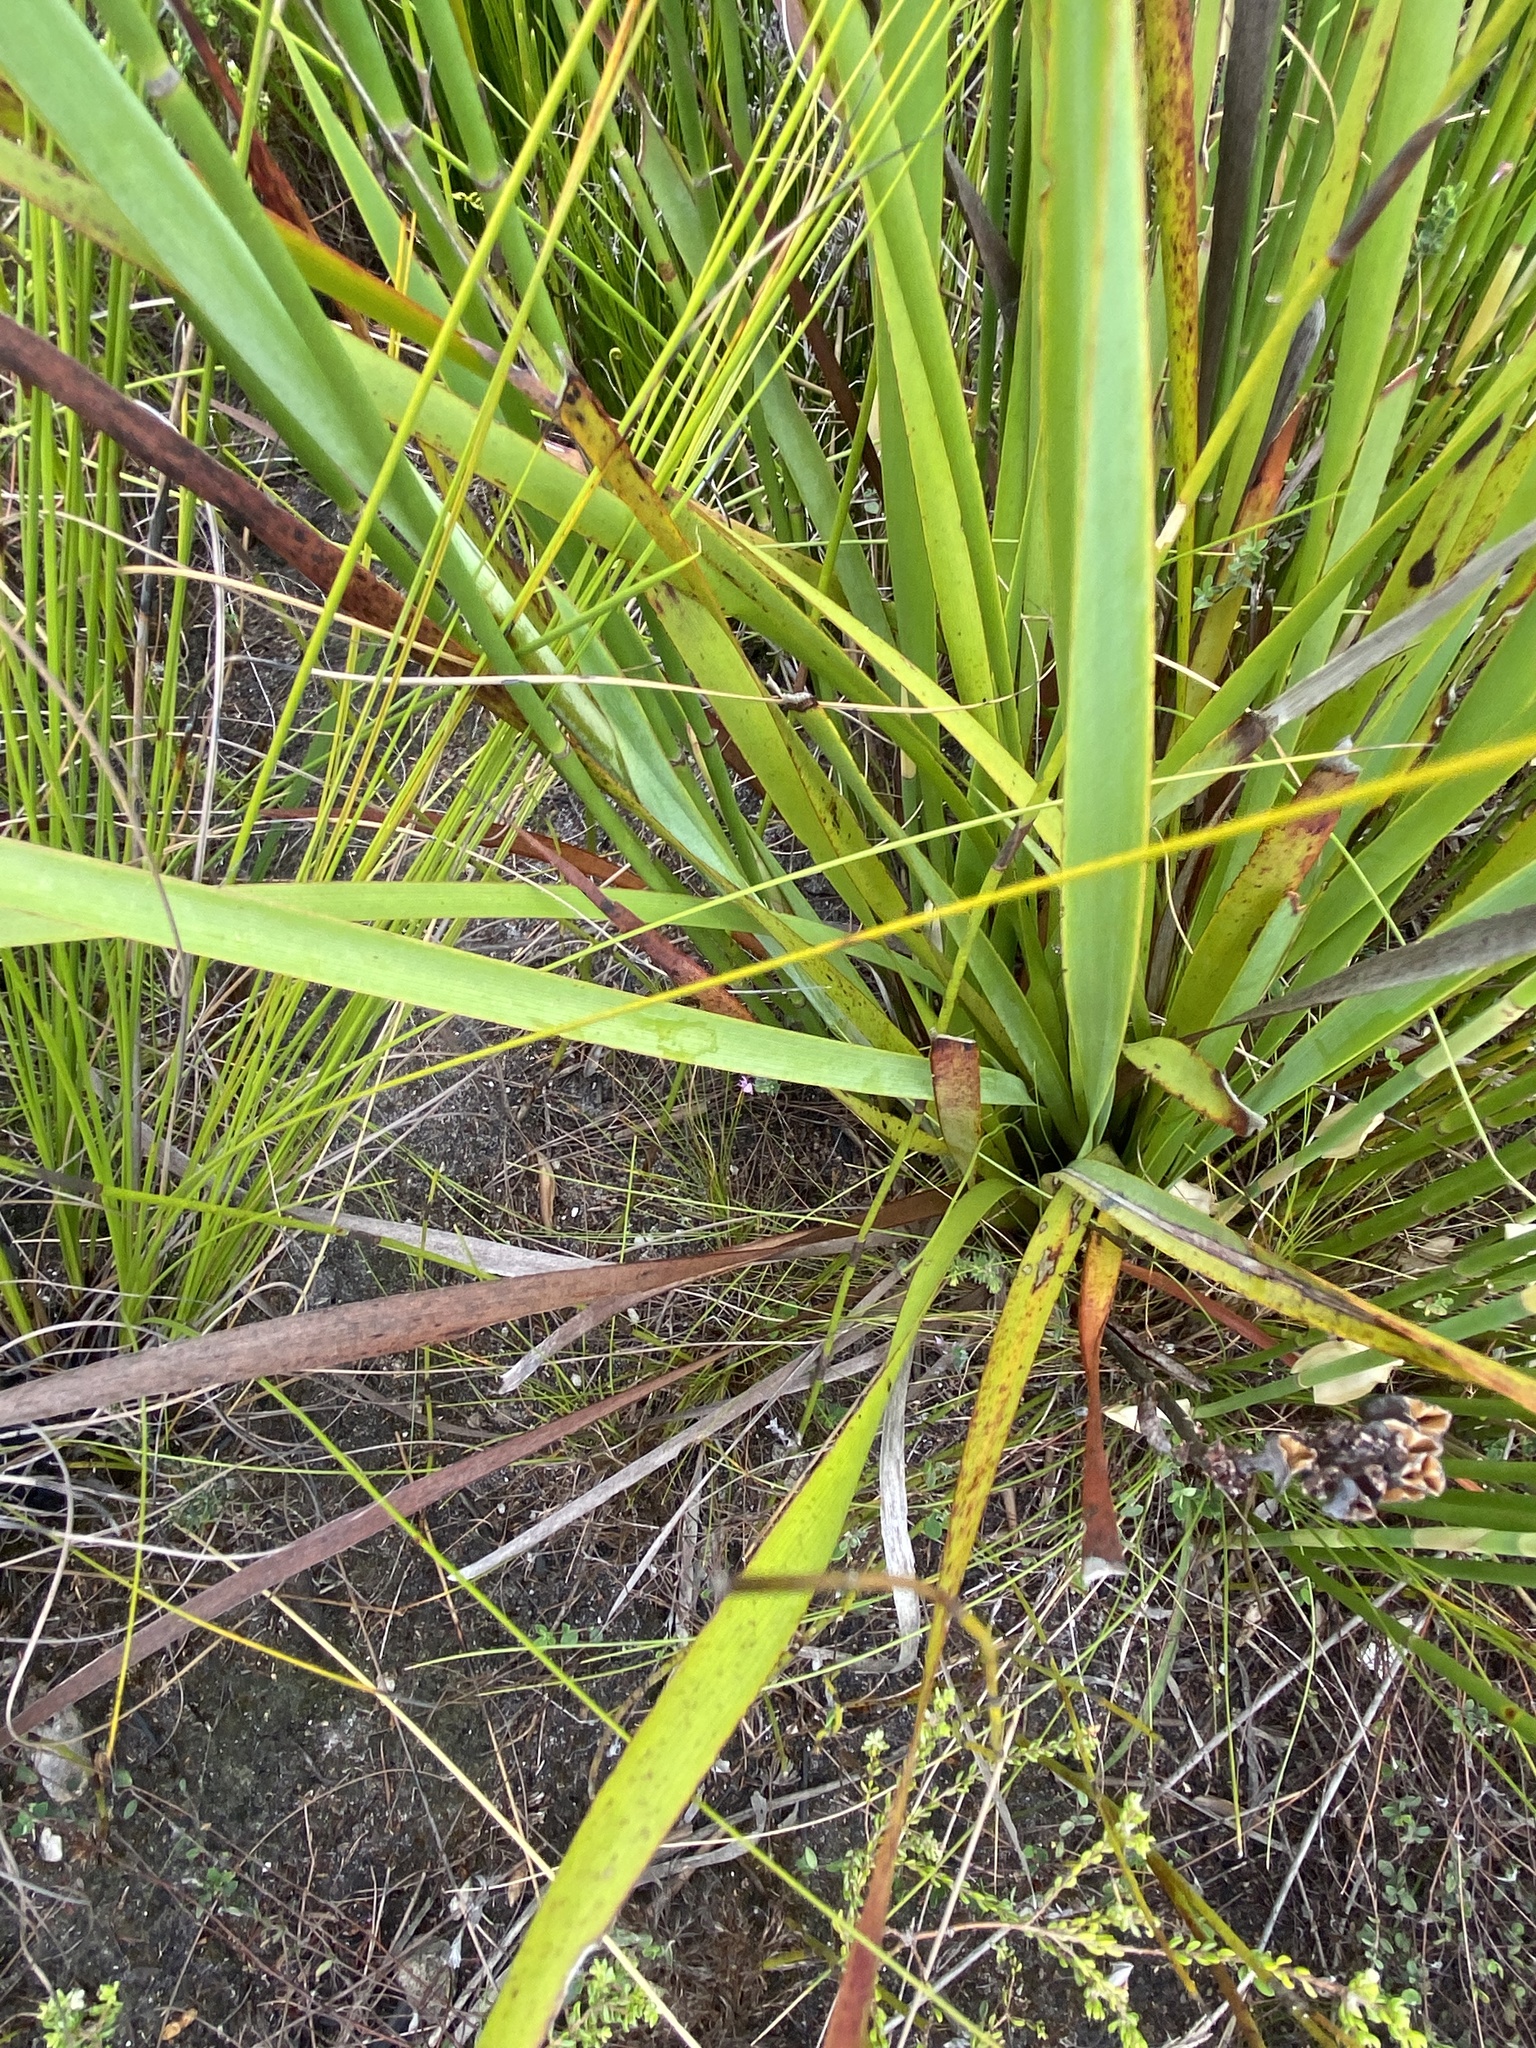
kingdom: Plantae
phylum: Tracheophyta
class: Liliopsida
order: Asparagales
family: Iridaceae
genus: Aristea
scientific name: Aristea bakeri
